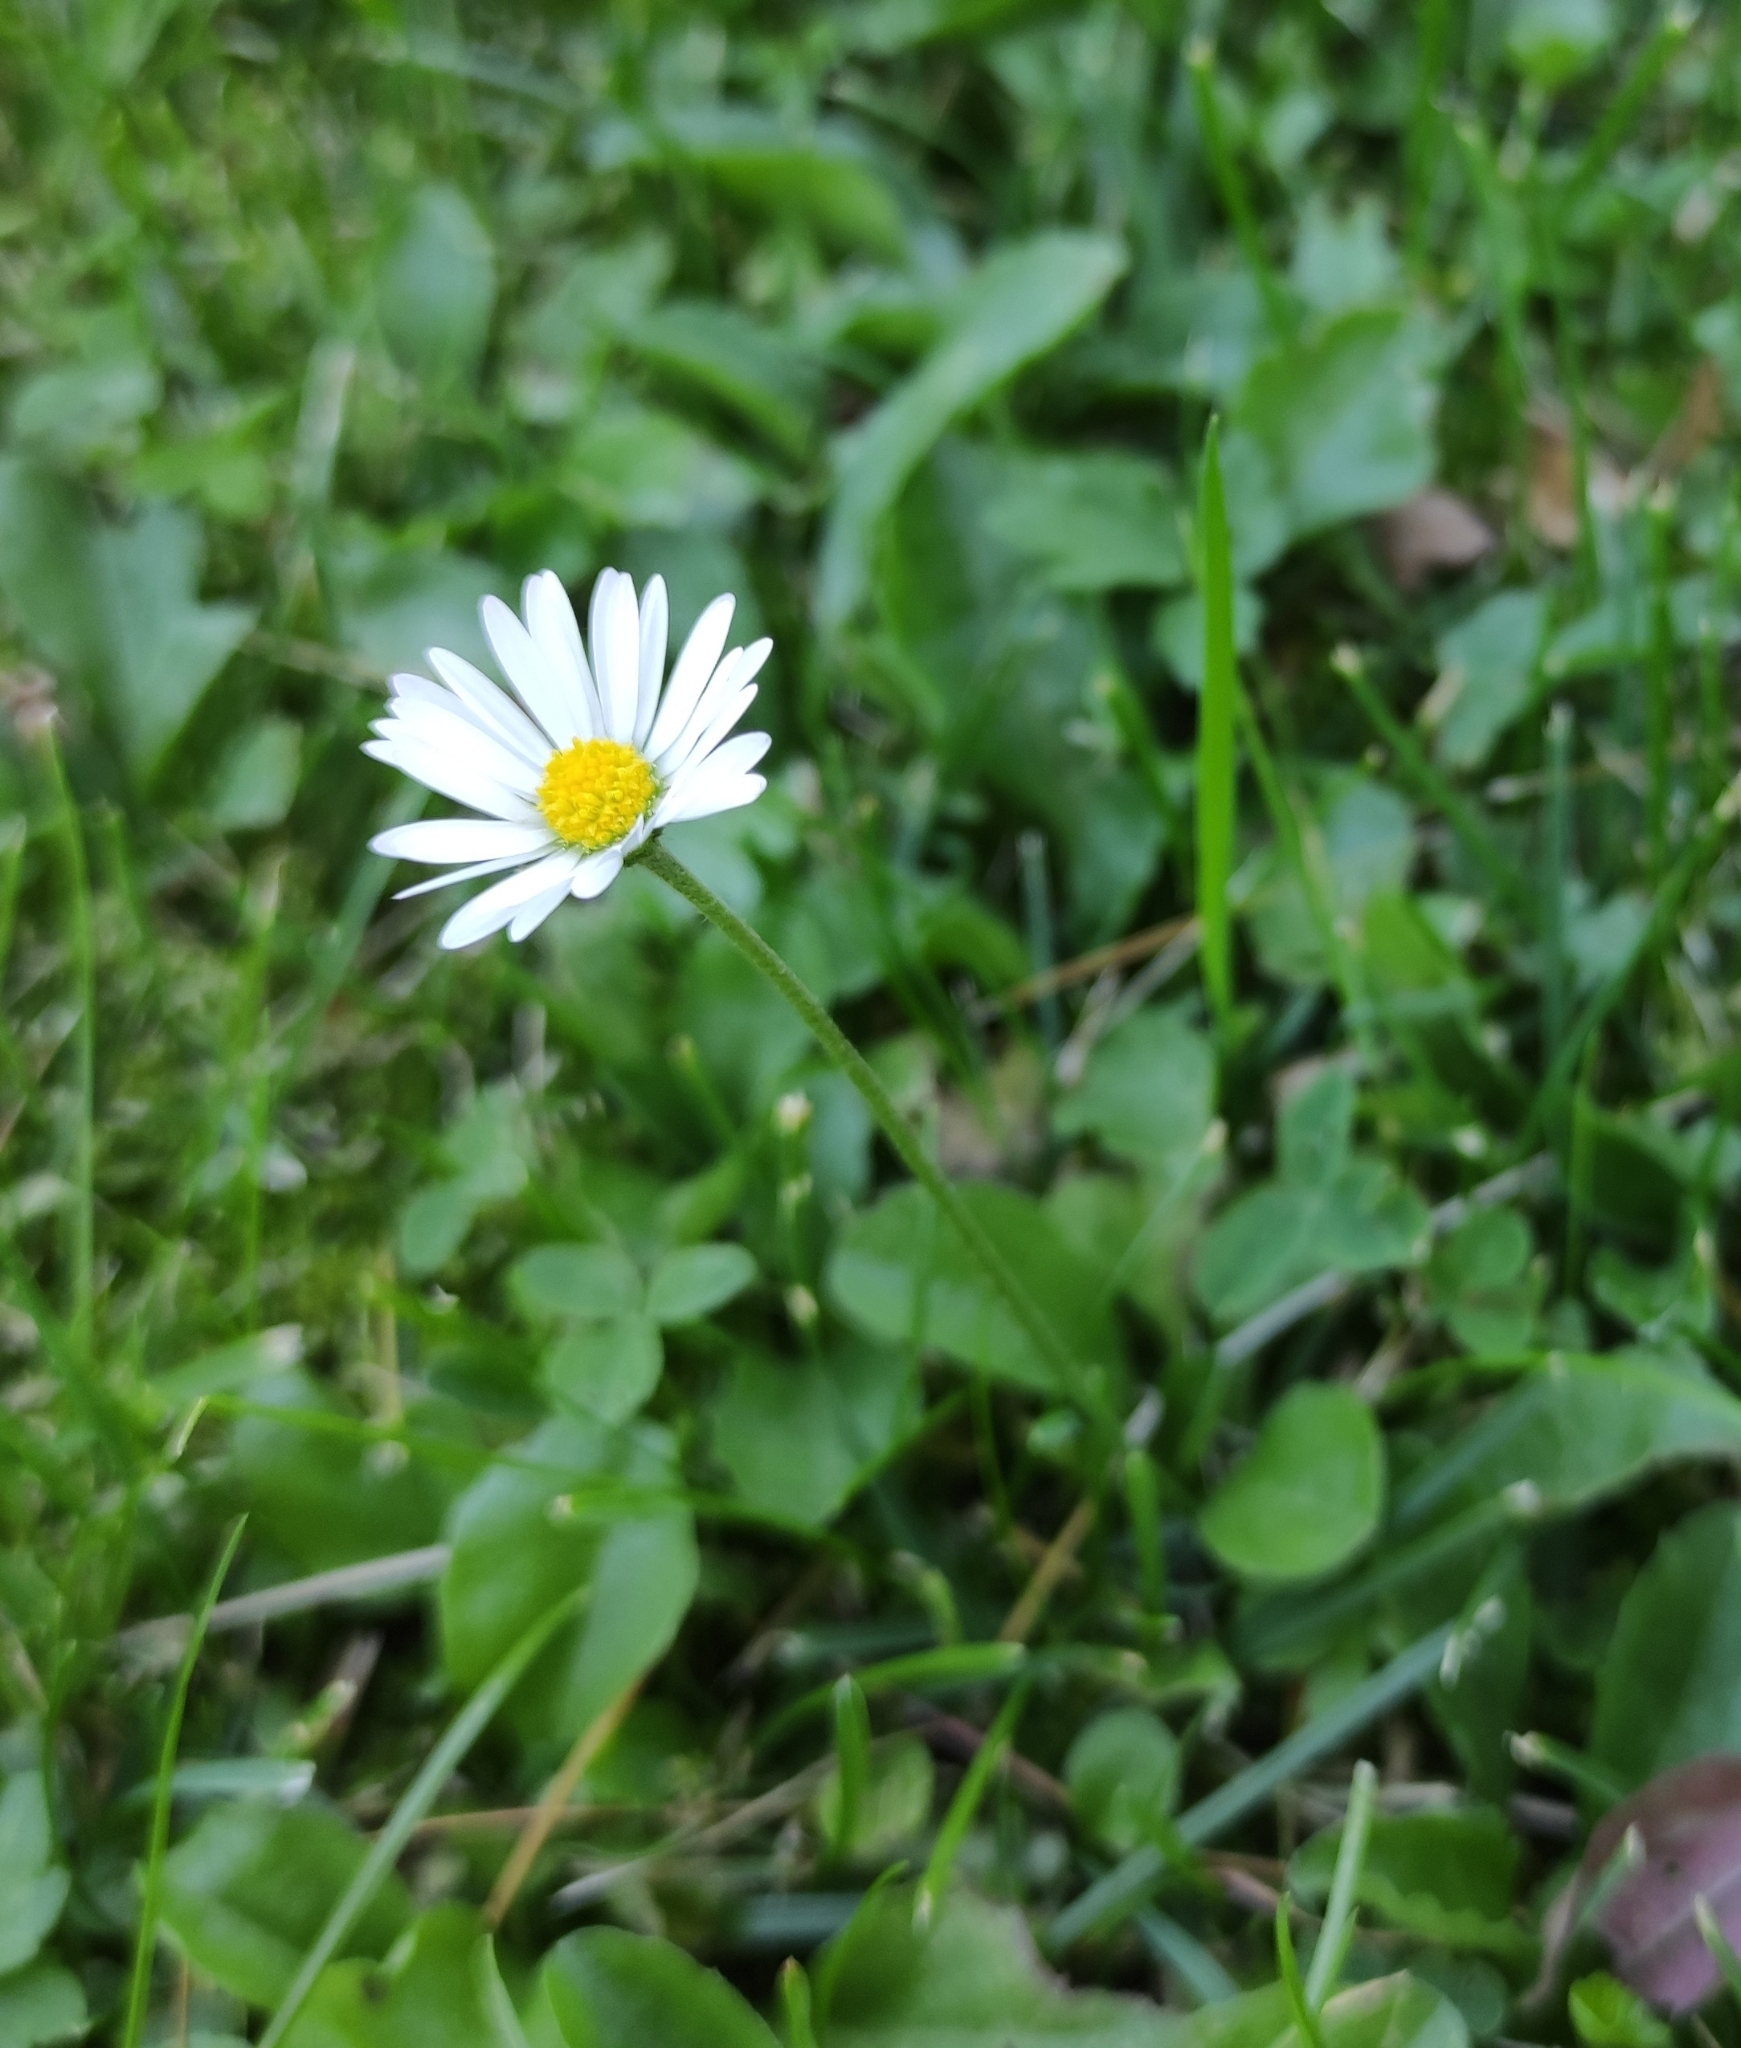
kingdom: Plantae
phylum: Tracheophyta
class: Magnoliopsida
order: Asterales
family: Asteraceae
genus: Bellis
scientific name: Bellis perennis
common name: Lawndaisy
